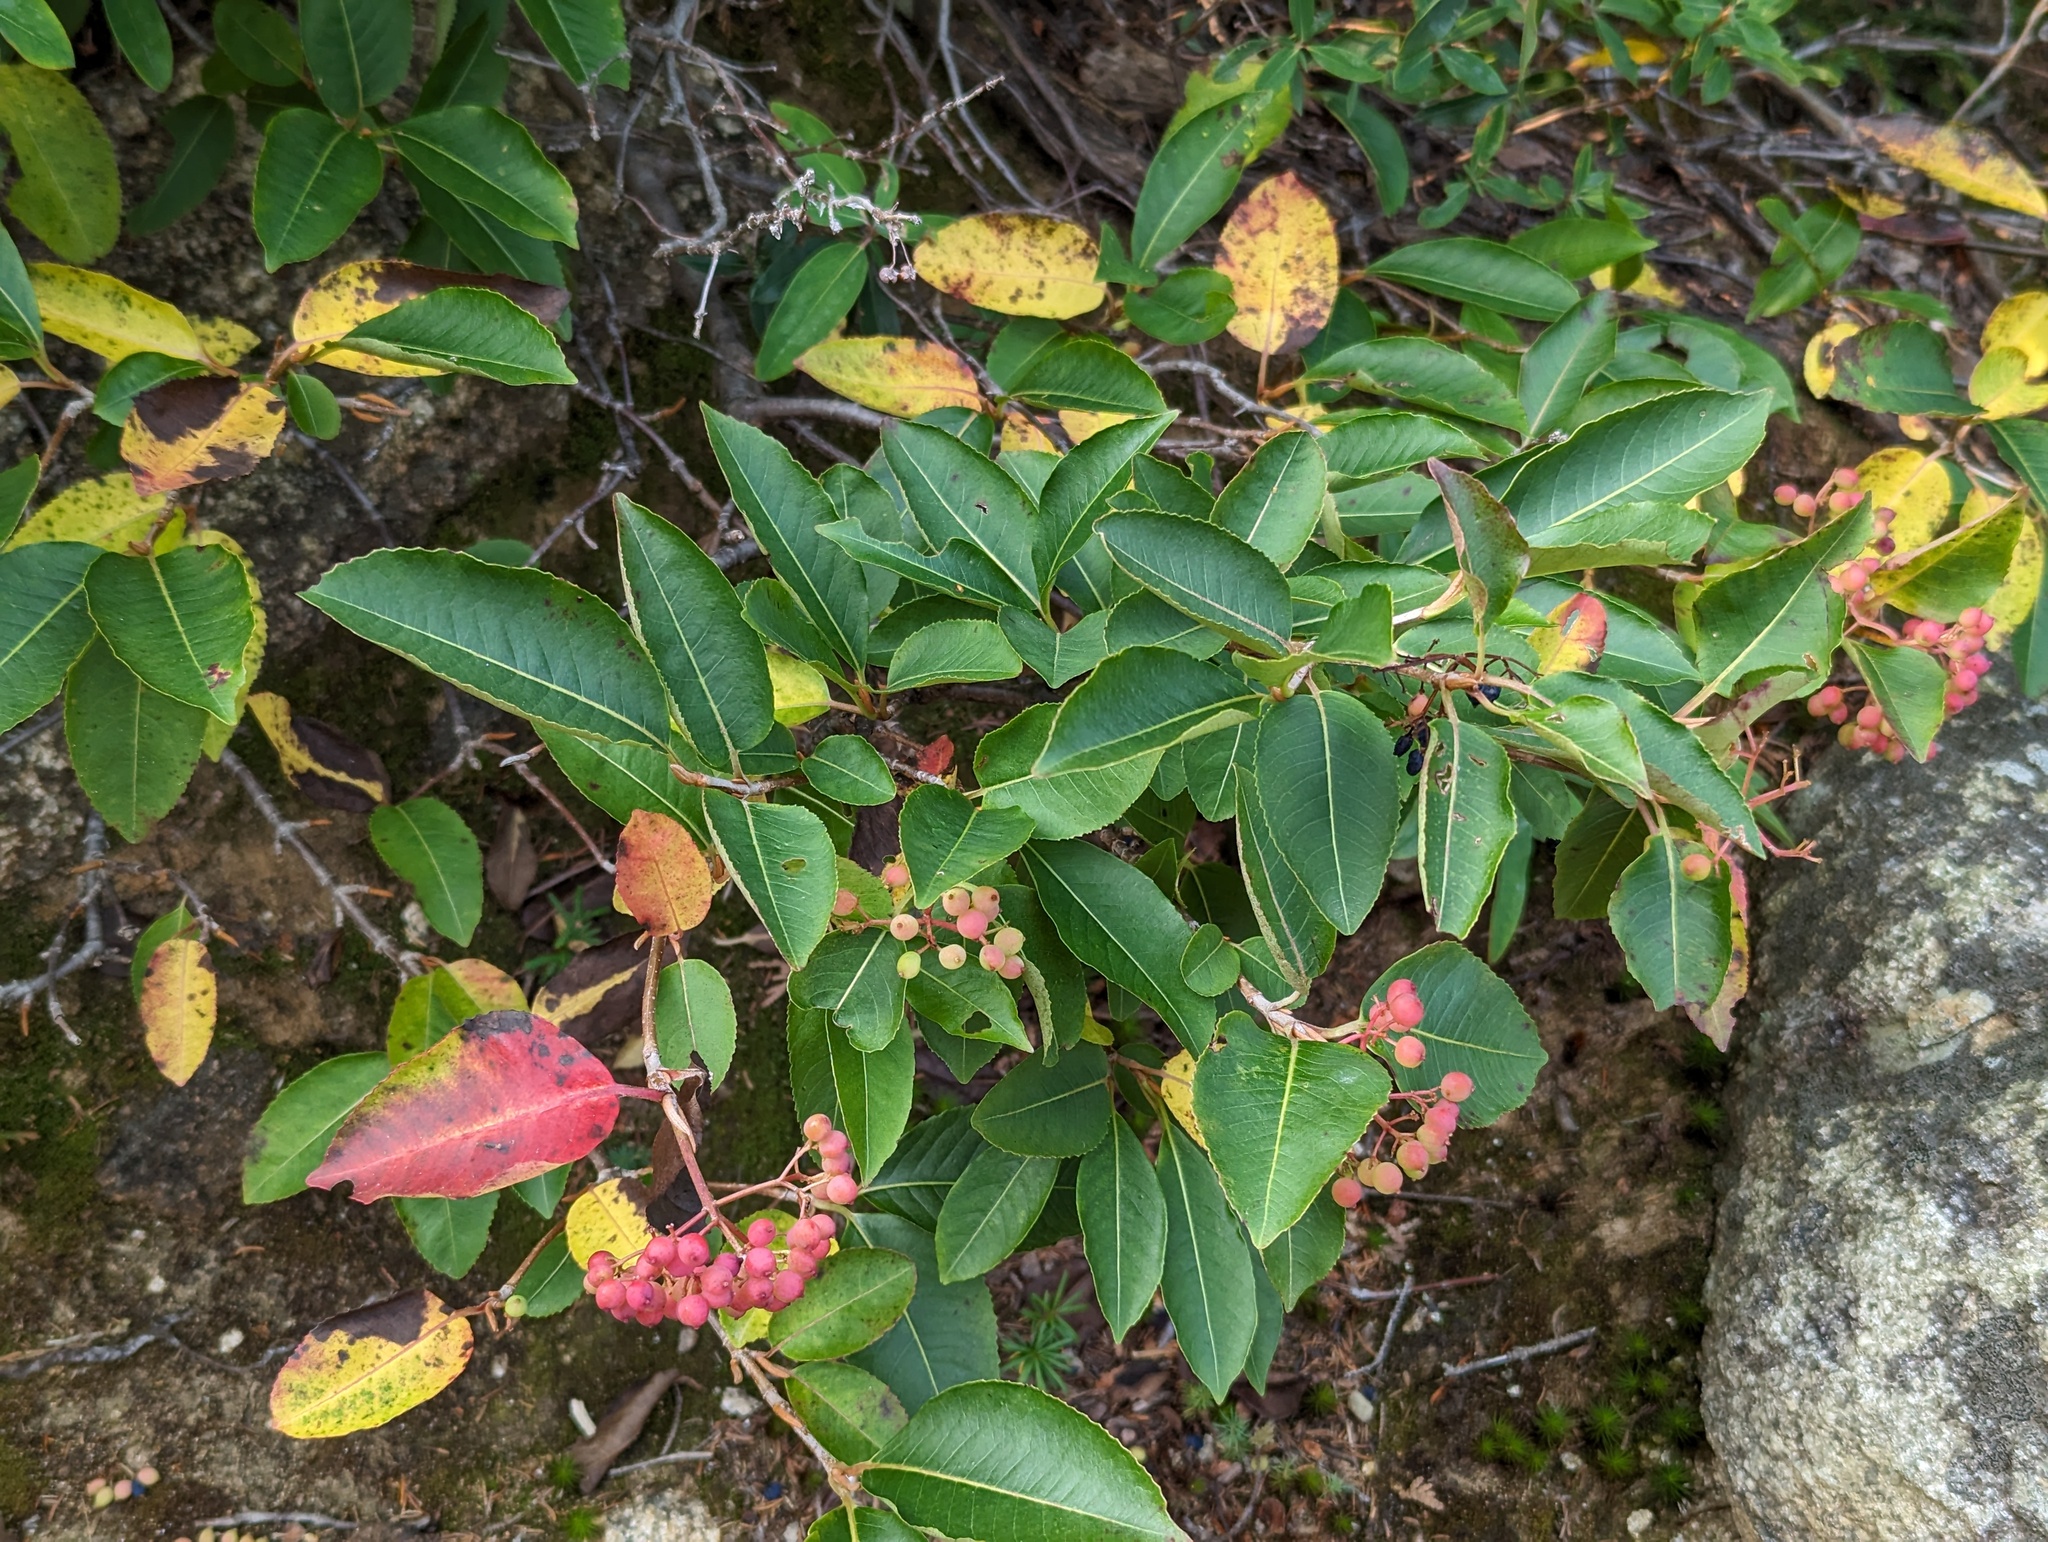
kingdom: Plantae
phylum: Tracheophyta
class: Magnoliopsida
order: Dipsacales
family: Viburnaceae
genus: Viburnum
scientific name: Viburnum cassinoides
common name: Swamp haw
